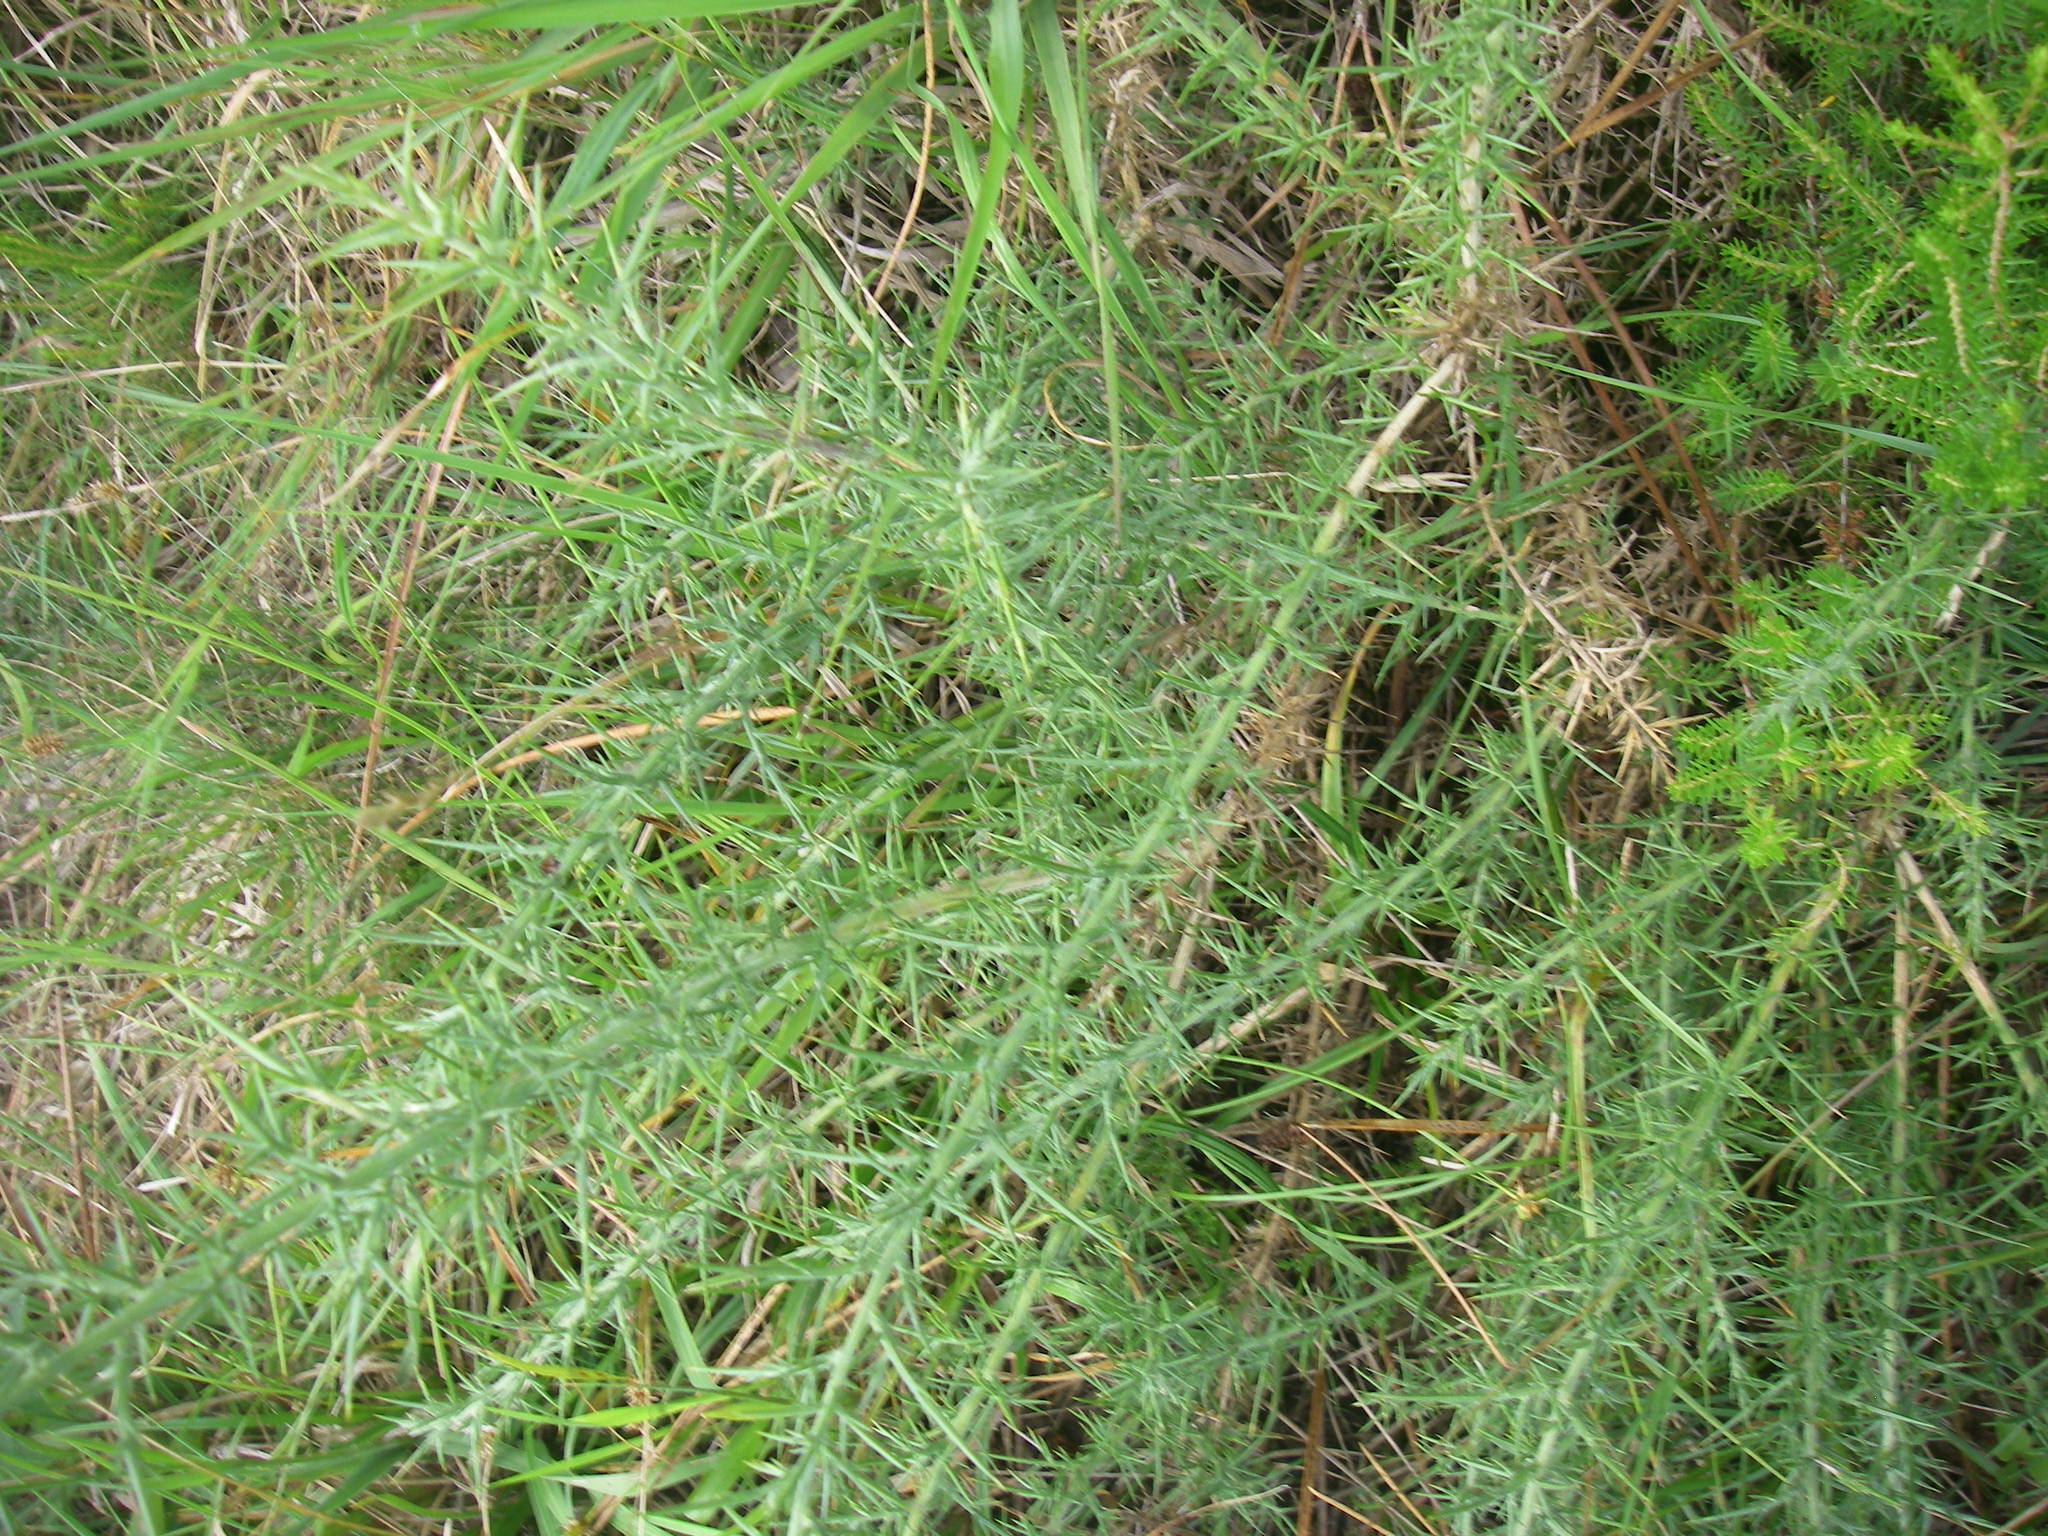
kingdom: Plantae
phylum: Tracheophyta
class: Magnoliopsida
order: Fabales
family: Fabaceae
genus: Ulex
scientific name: Ulex europaeus
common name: Common gorse
